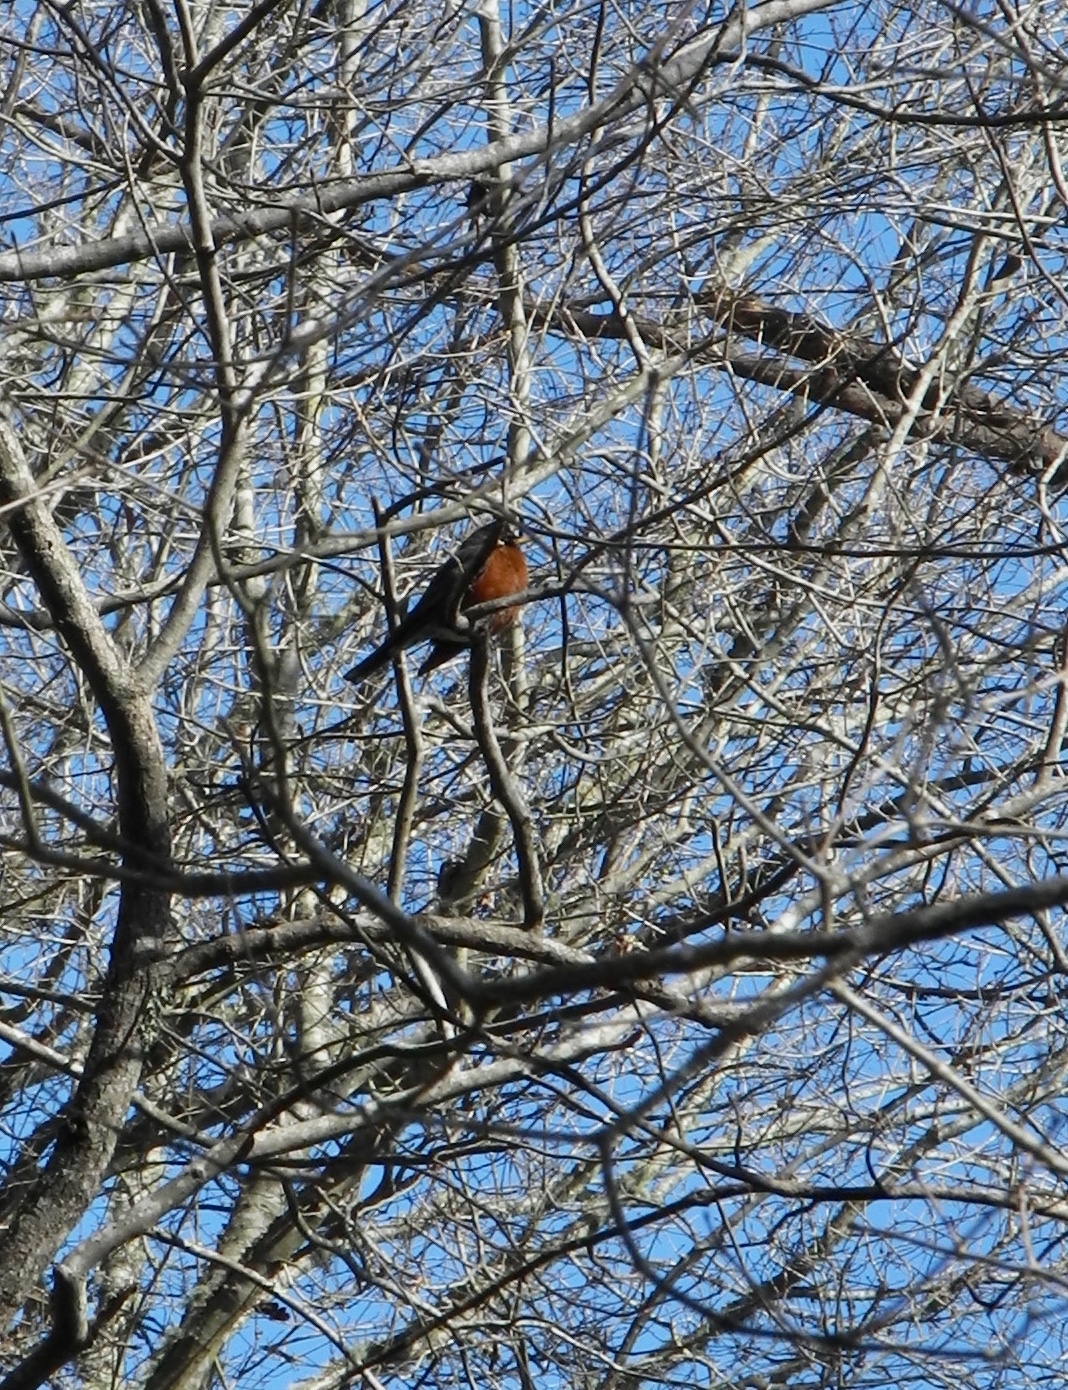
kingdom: Animalia
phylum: Chordata
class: Aves
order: Passeriformes
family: Turdidae
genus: Turdus
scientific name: Turdus migratorius
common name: American robin
